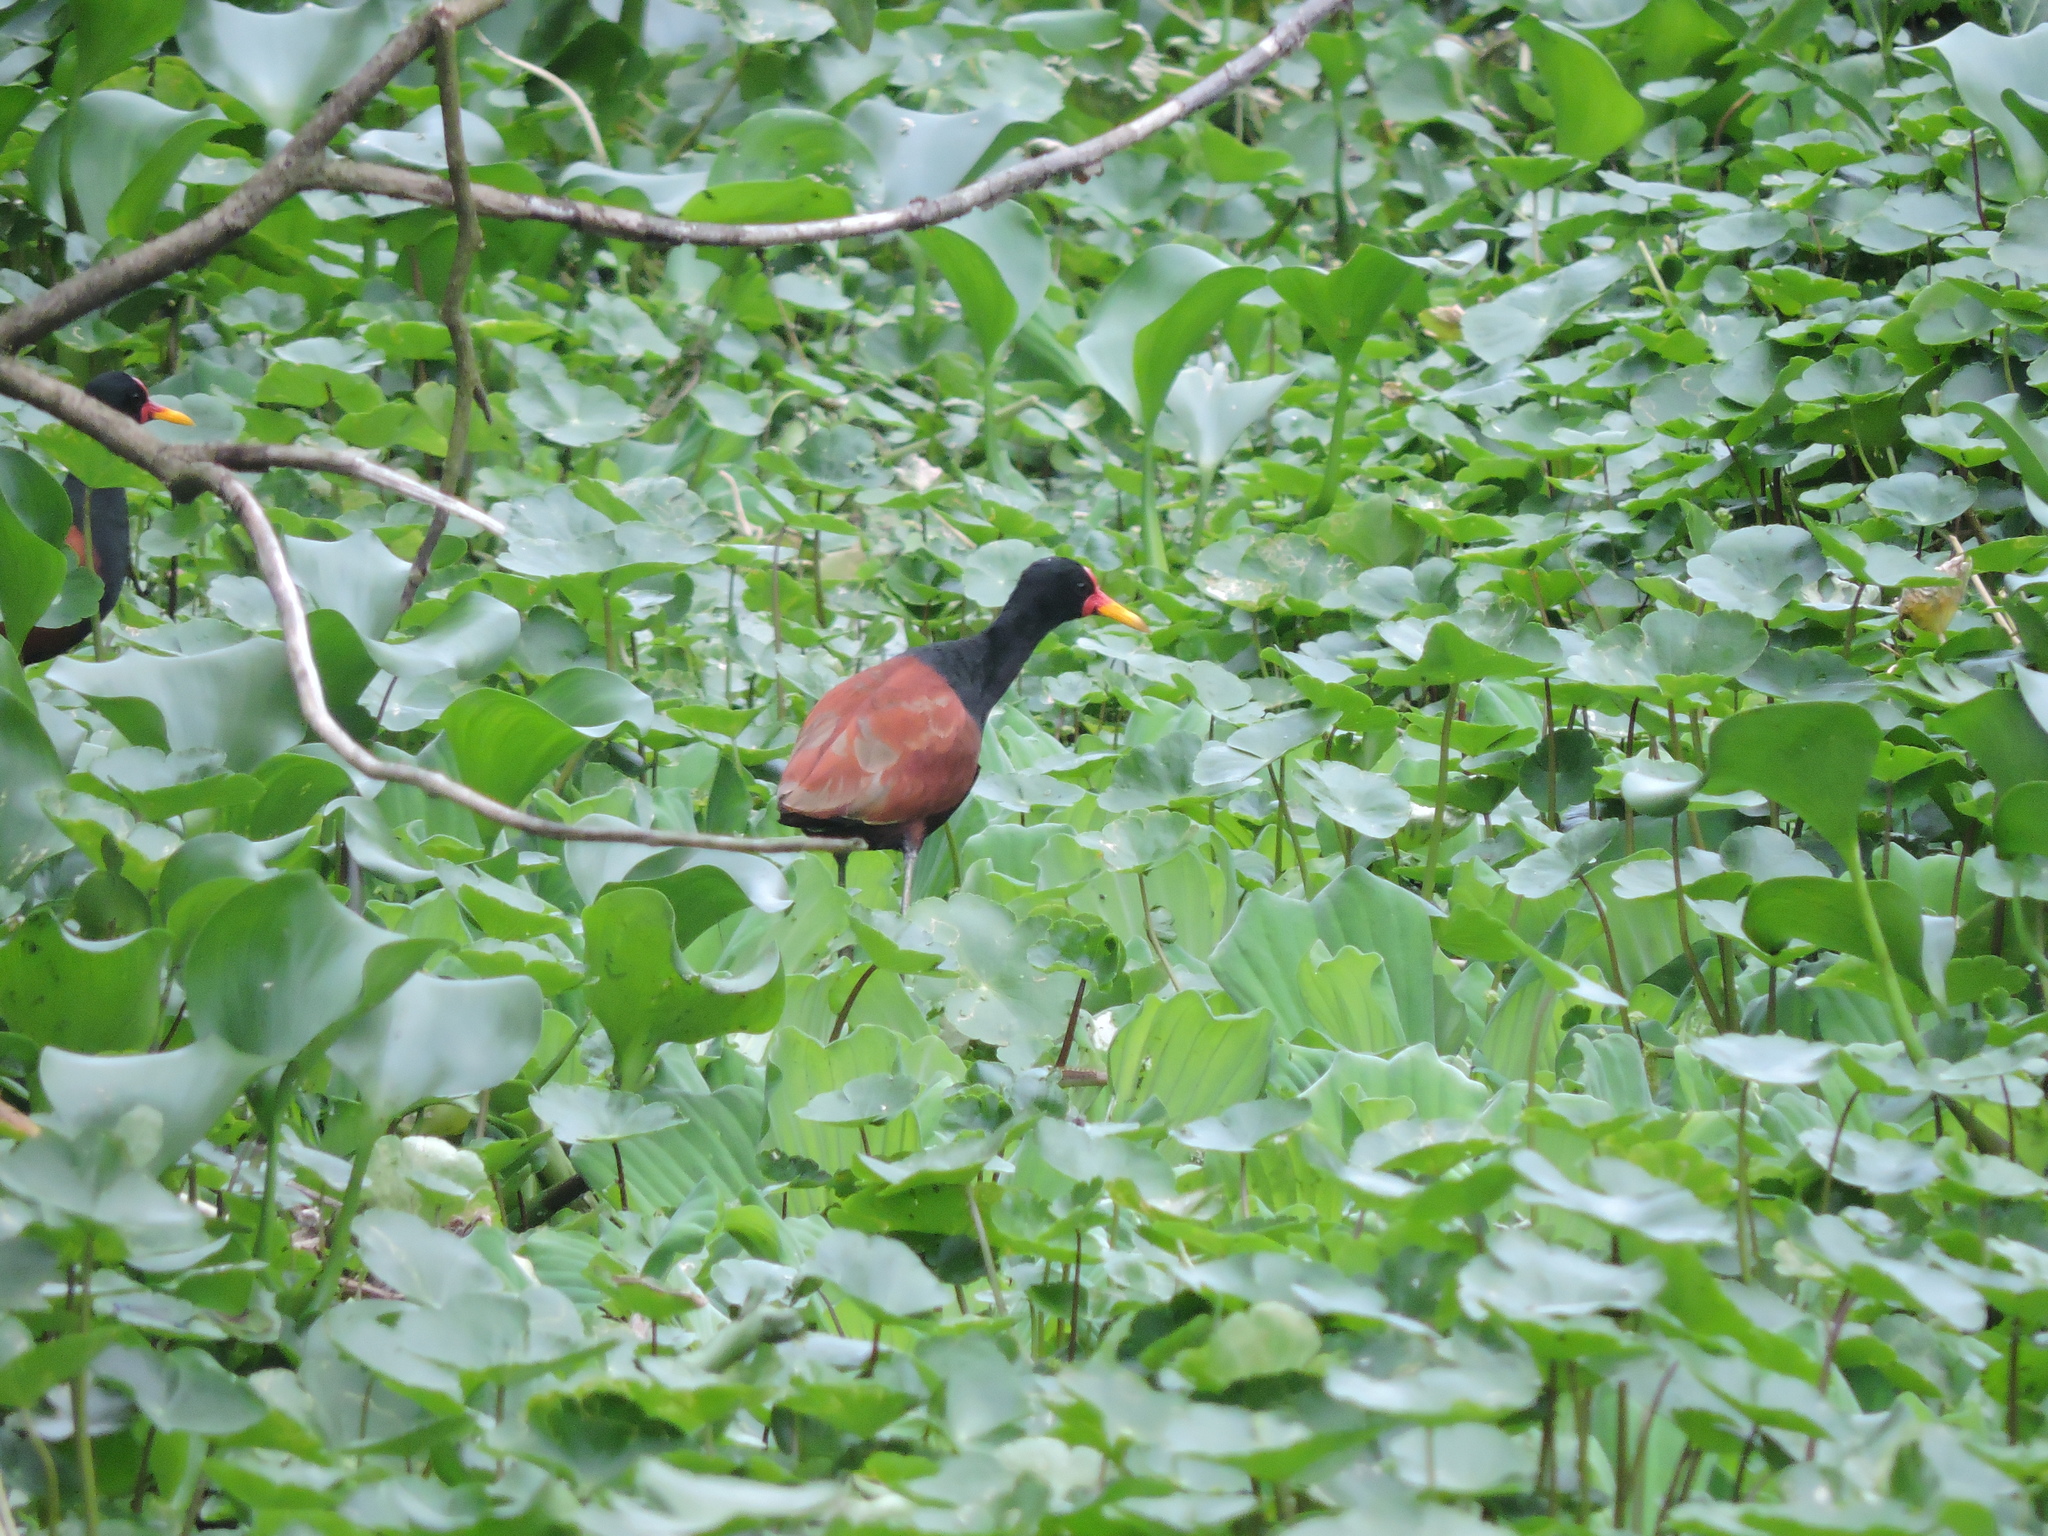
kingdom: Animalia
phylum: Chordata
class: Aves
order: Charadriiformes
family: Jacanidae
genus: Jacana
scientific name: Jacana jacana
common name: Wattled jacana
